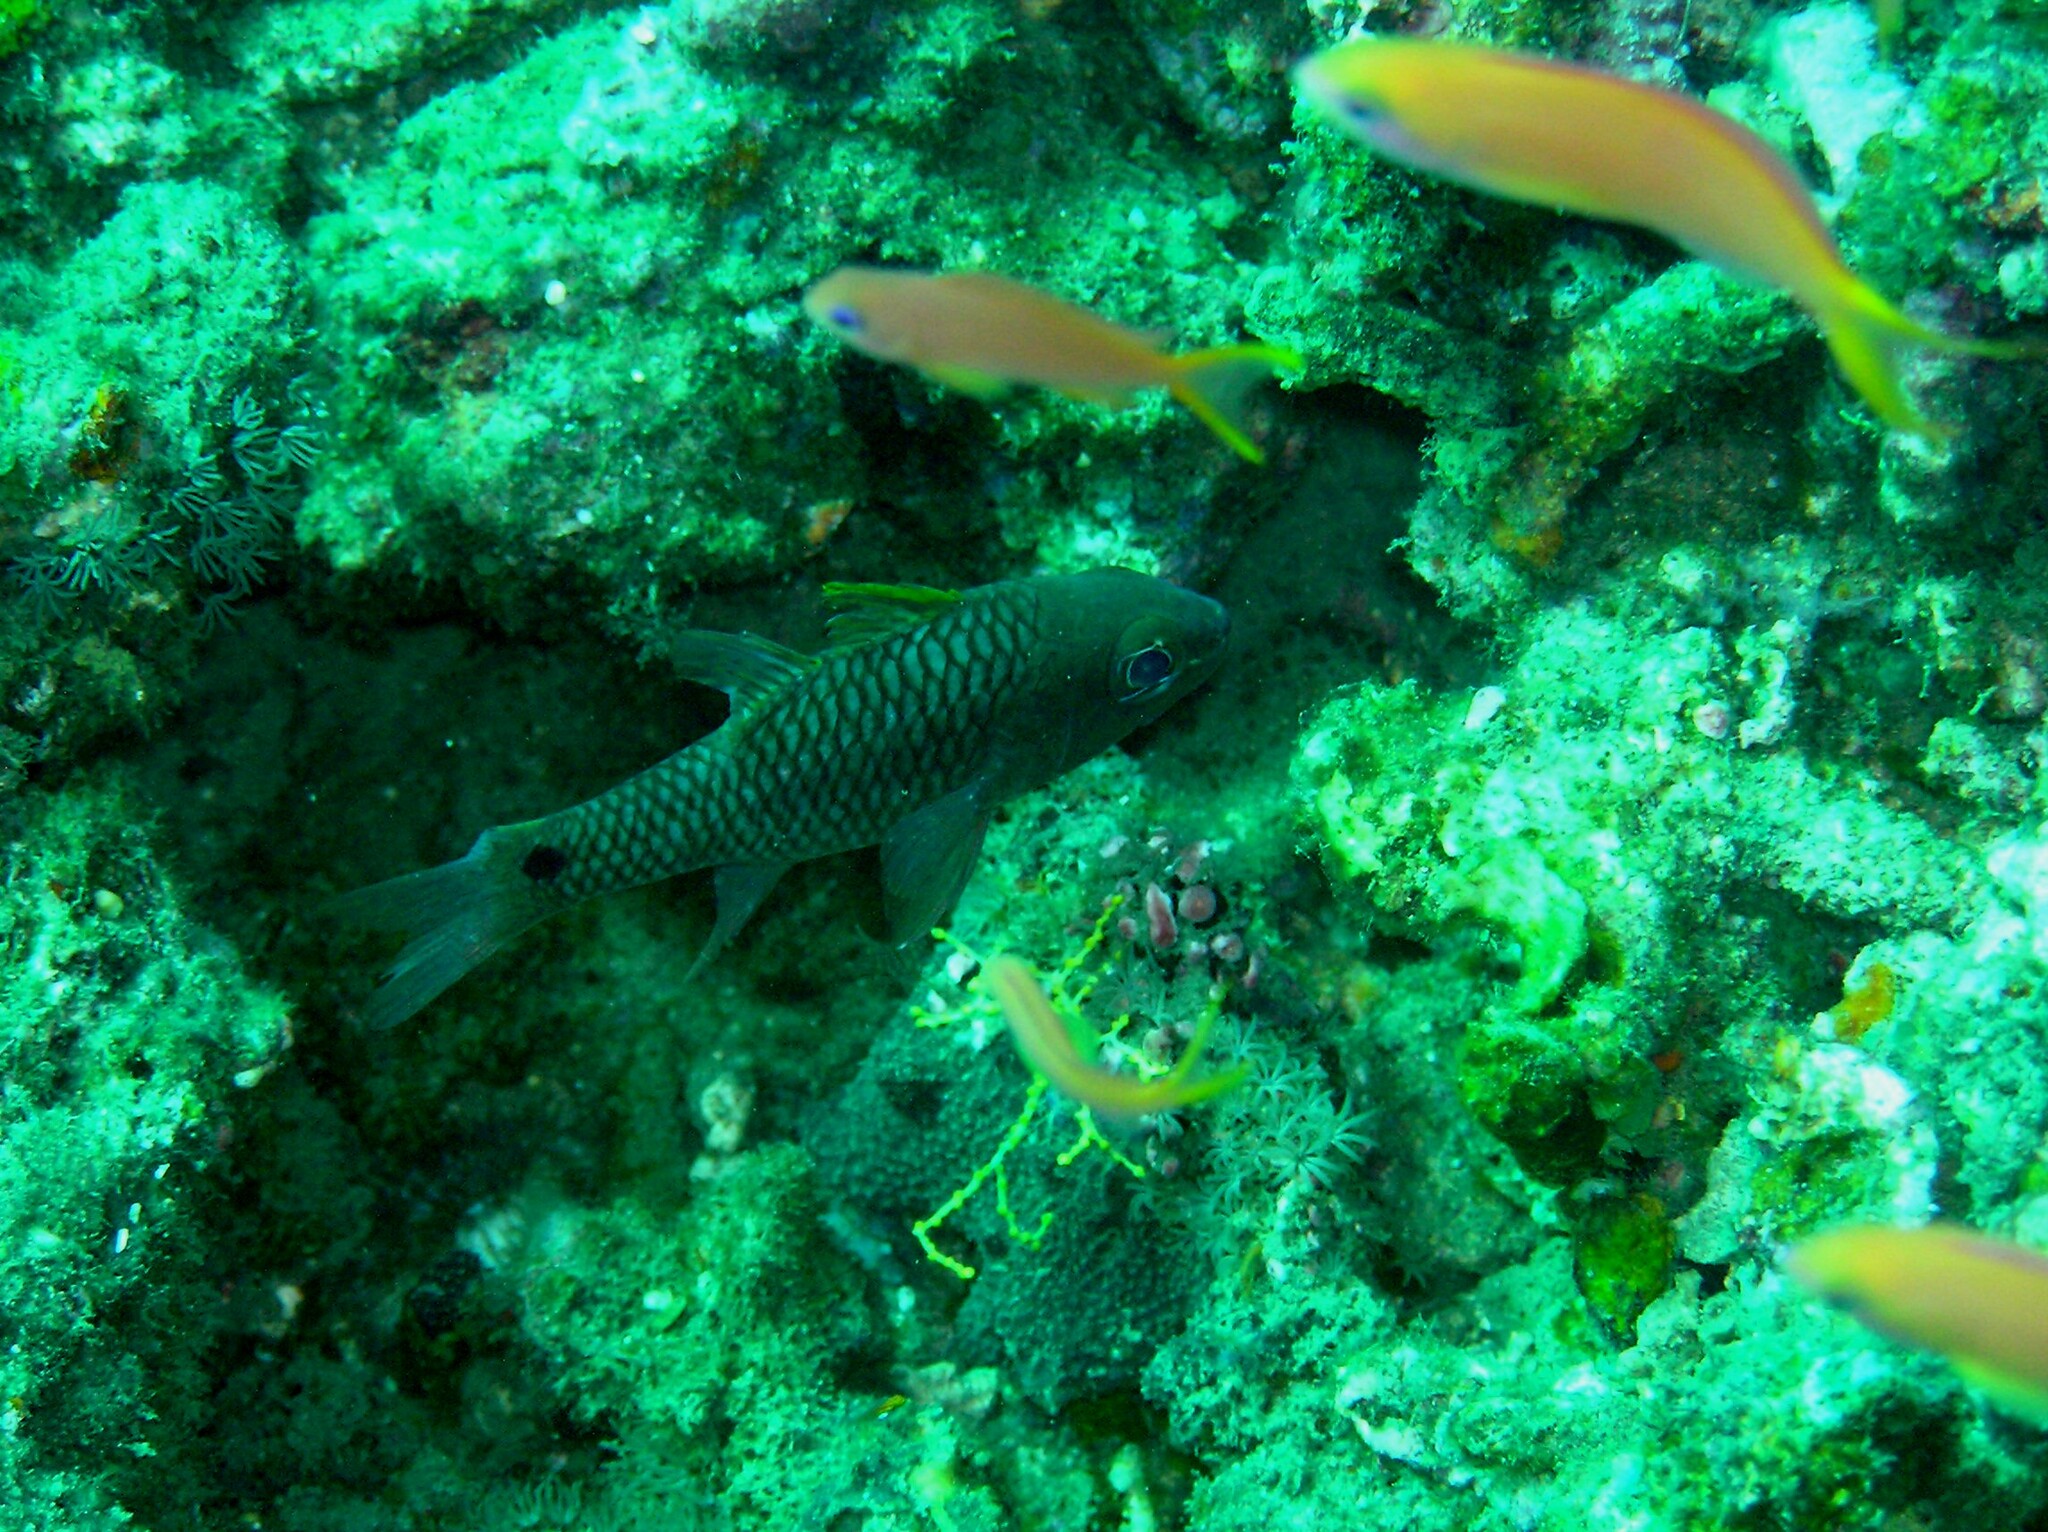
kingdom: Animalia
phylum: Chordata
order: Perciformes
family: Apogonidae
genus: Pristiapogon
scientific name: Pristiapogon kallopterus
